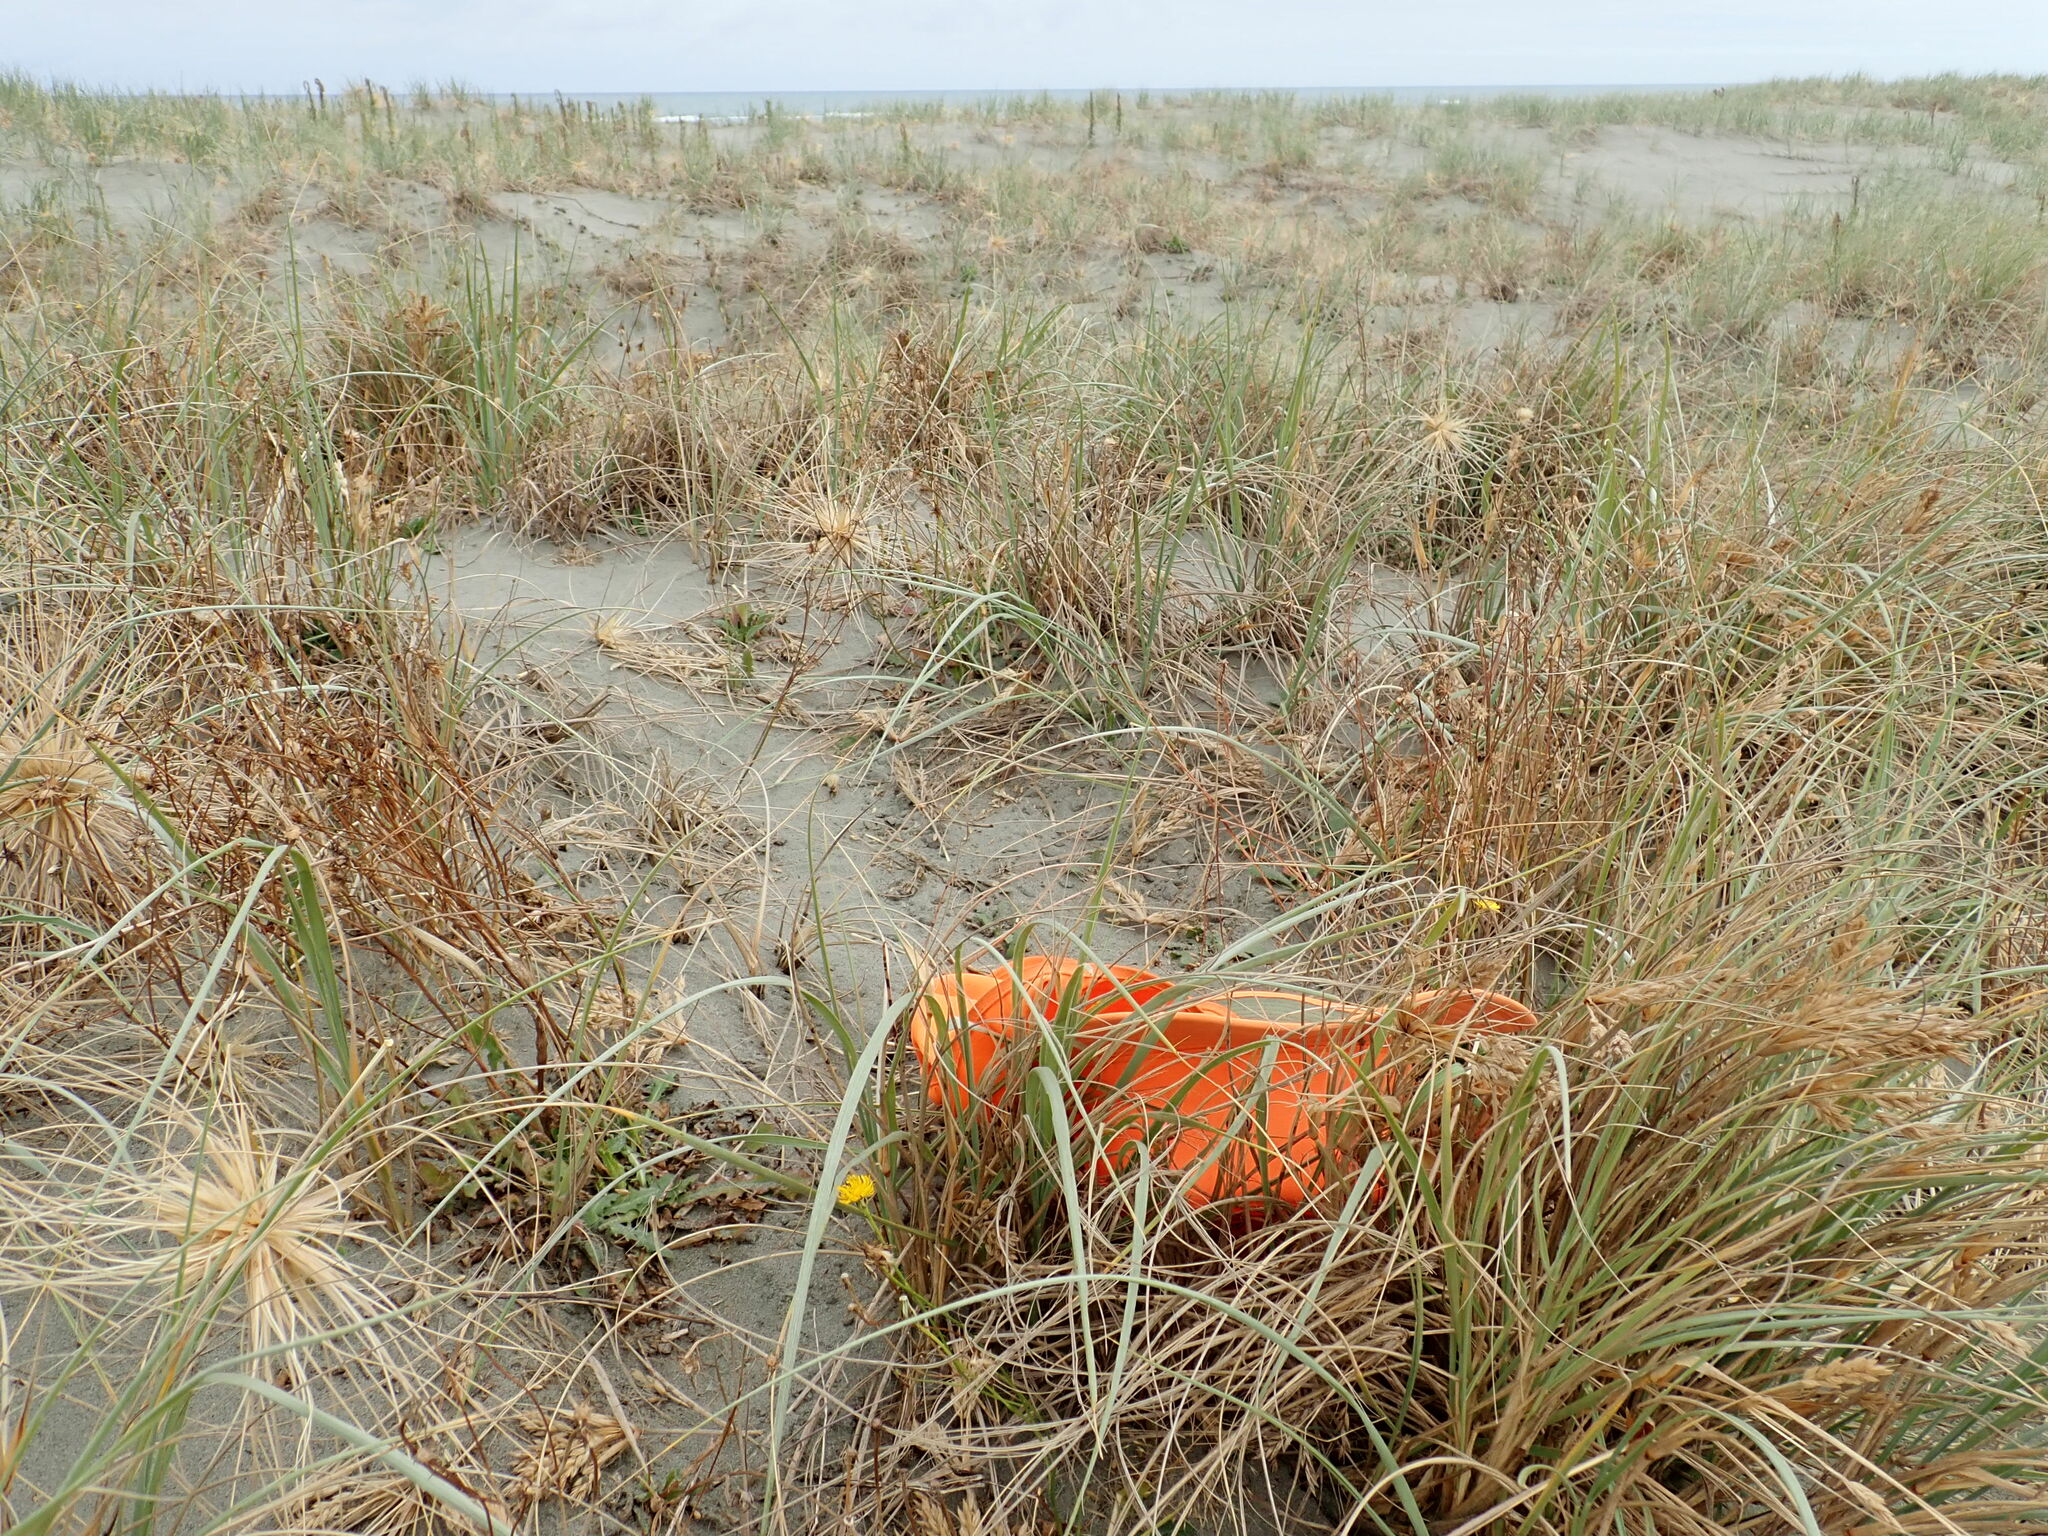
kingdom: Animalia
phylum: Arthropoda
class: Arachnida
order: Araneae
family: Theridiidae
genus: Latrodectus
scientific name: Latrodectus katipo
